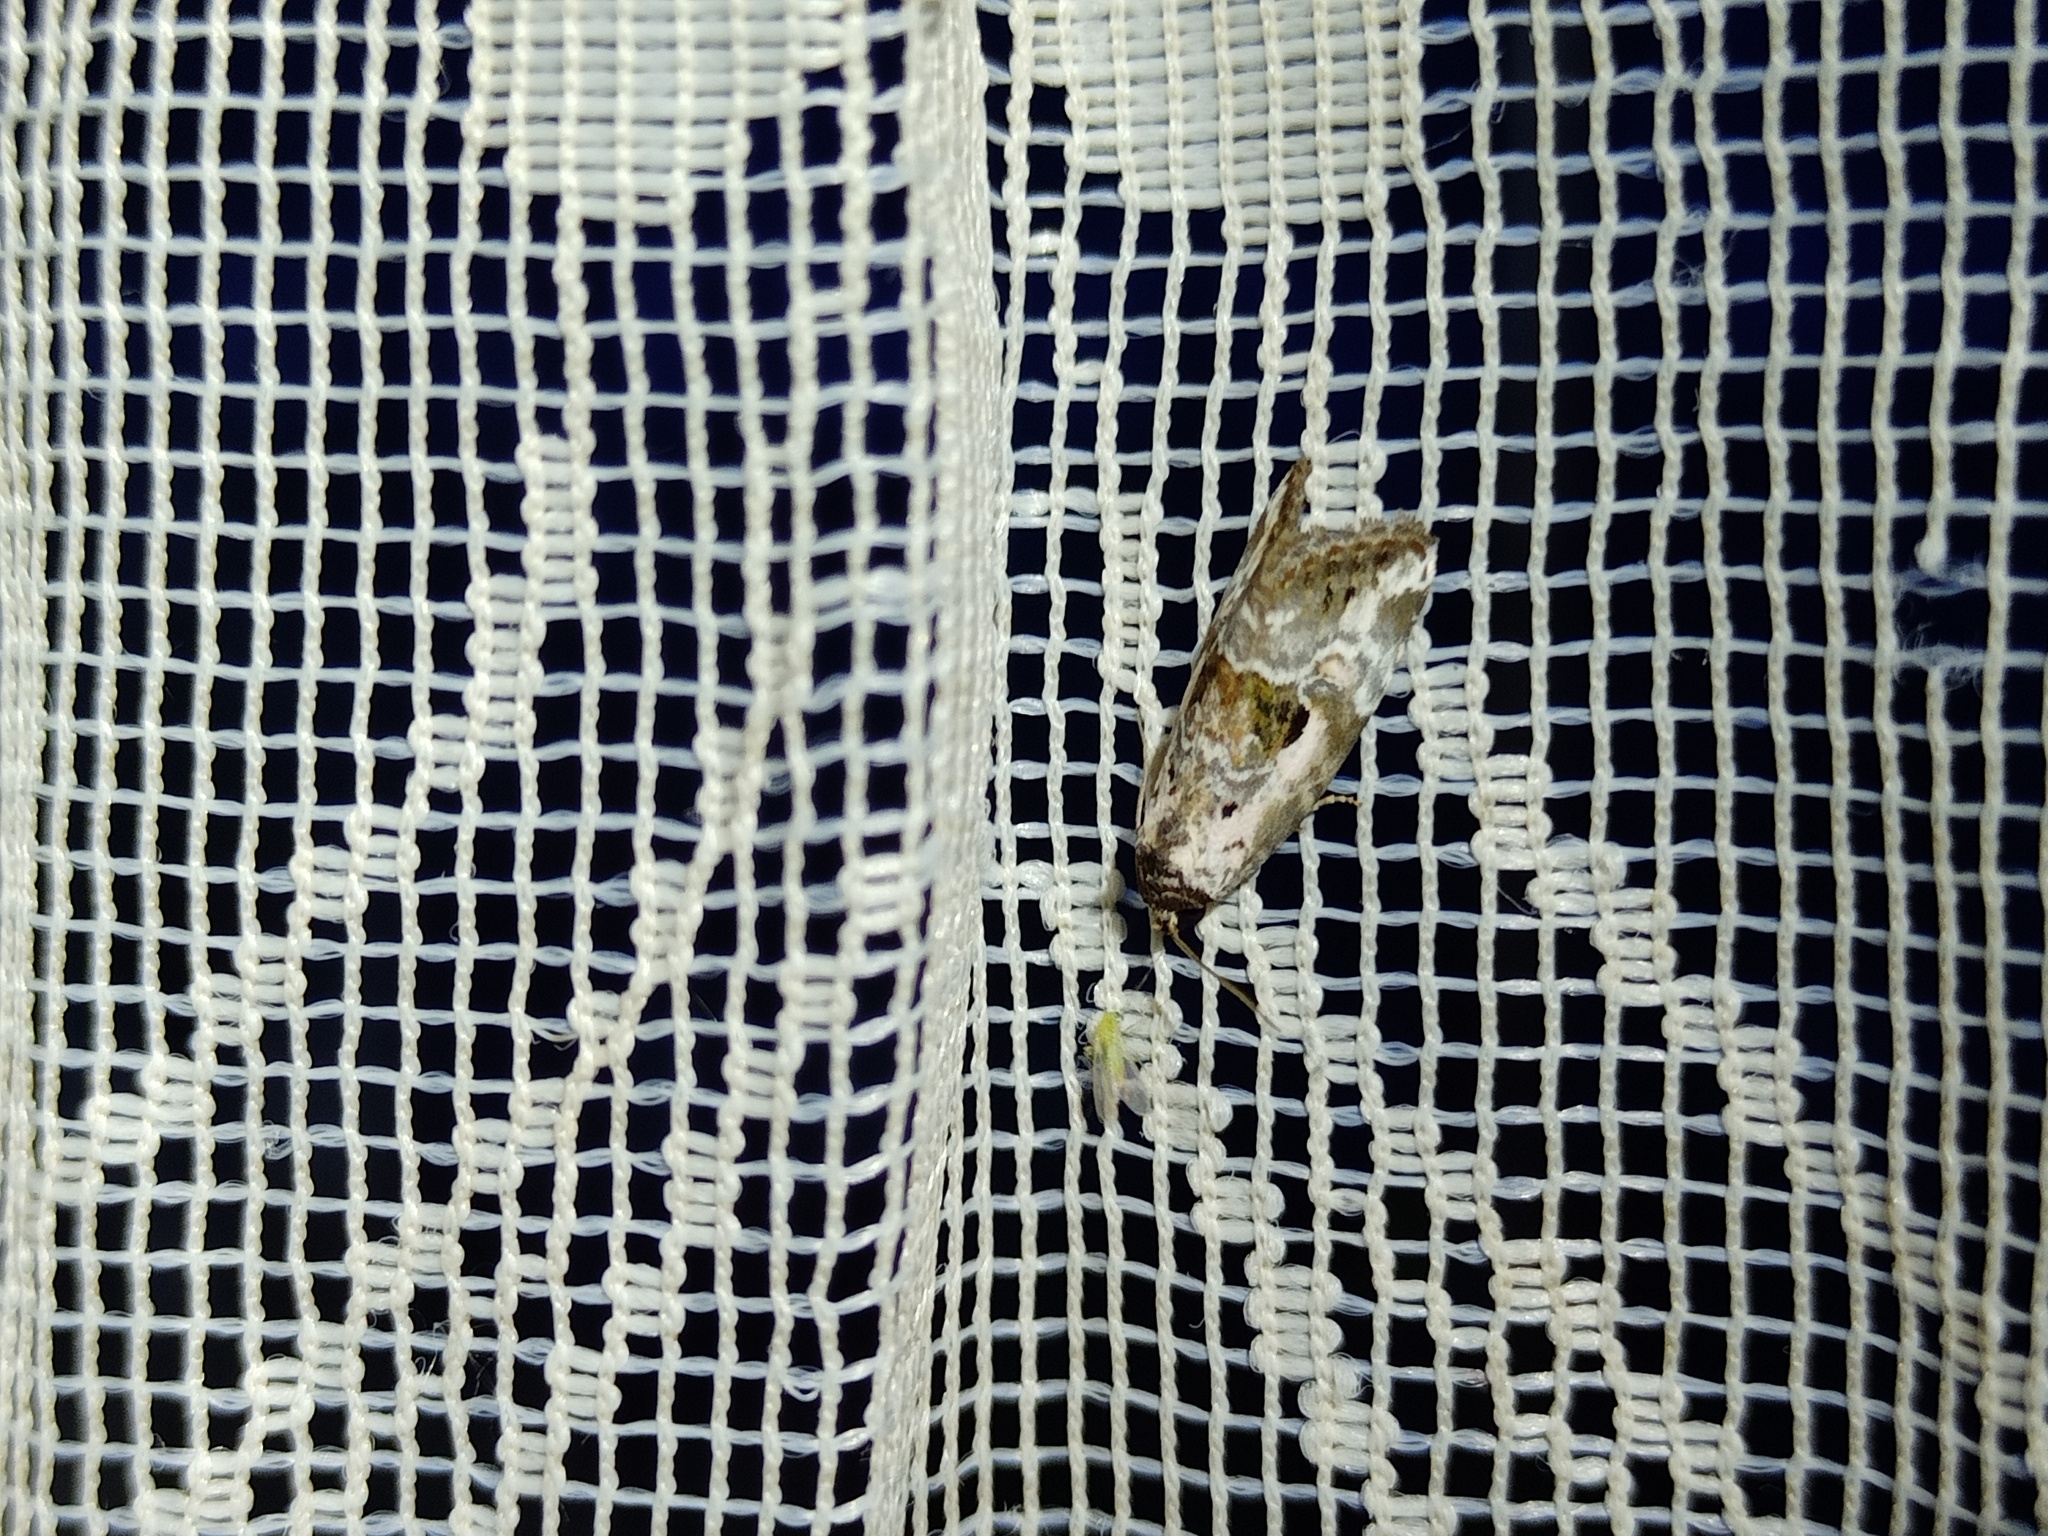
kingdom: Animalia
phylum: Arthropoda
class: Insecta
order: Lepidoptera
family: Noctuidae
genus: Elaphria
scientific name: Elaphria venustula
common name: Rosy marbled
